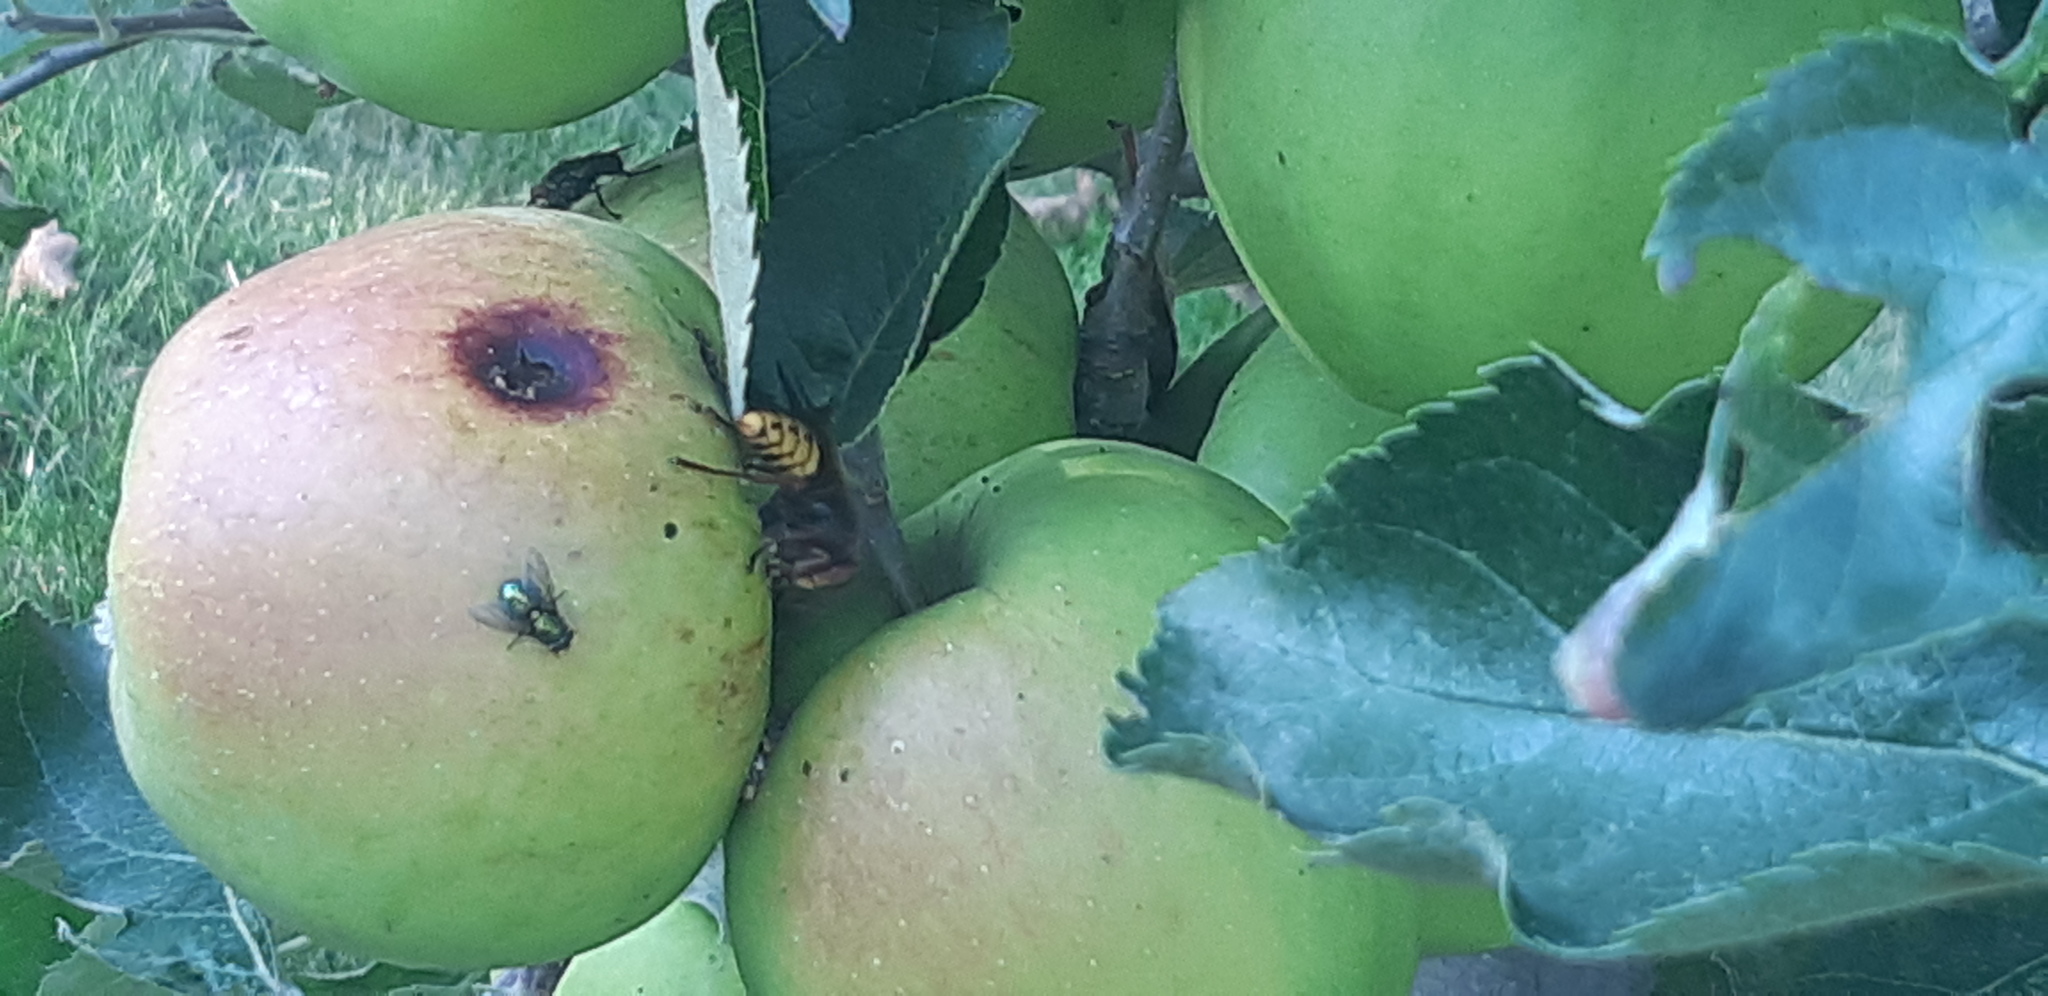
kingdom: Animalia
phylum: Arthropoda
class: Insecta
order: Hymenoptera
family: Vespidae
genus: Vespa
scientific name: Vespa crabro
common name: Hornet
